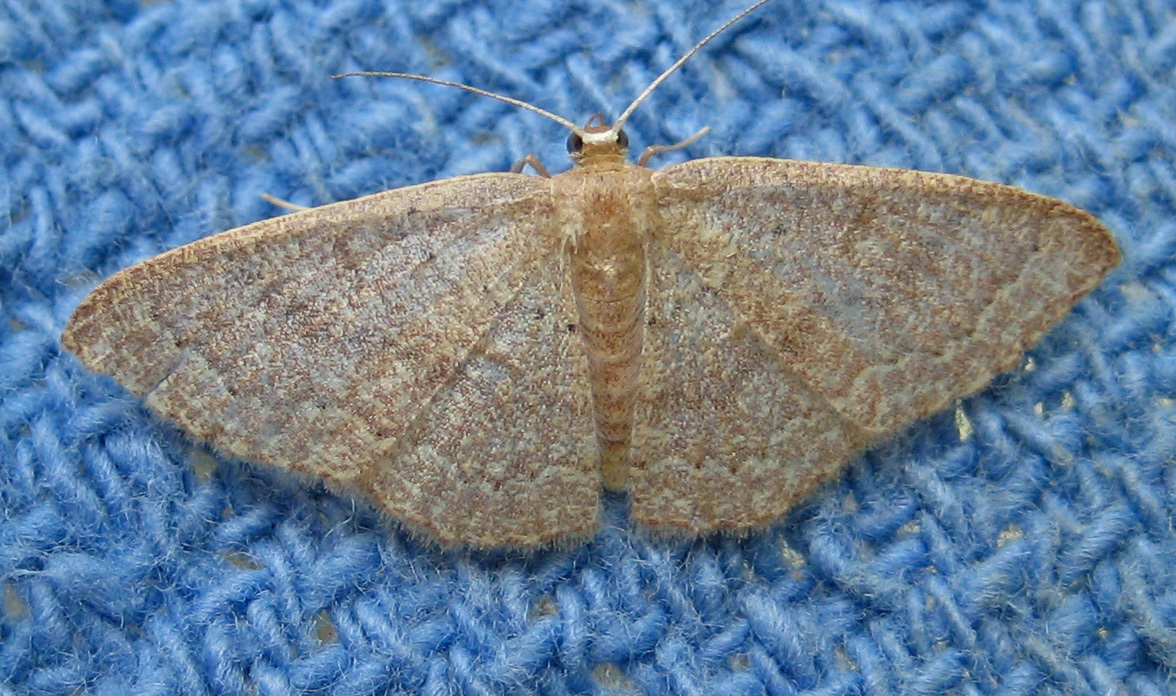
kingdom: Animalia
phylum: Arthropoda
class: Insecta
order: Lepidoptera
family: Geometridae
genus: Pleuroprucha
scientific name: Pleuroprucha insulsaria
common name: Common tan wave
